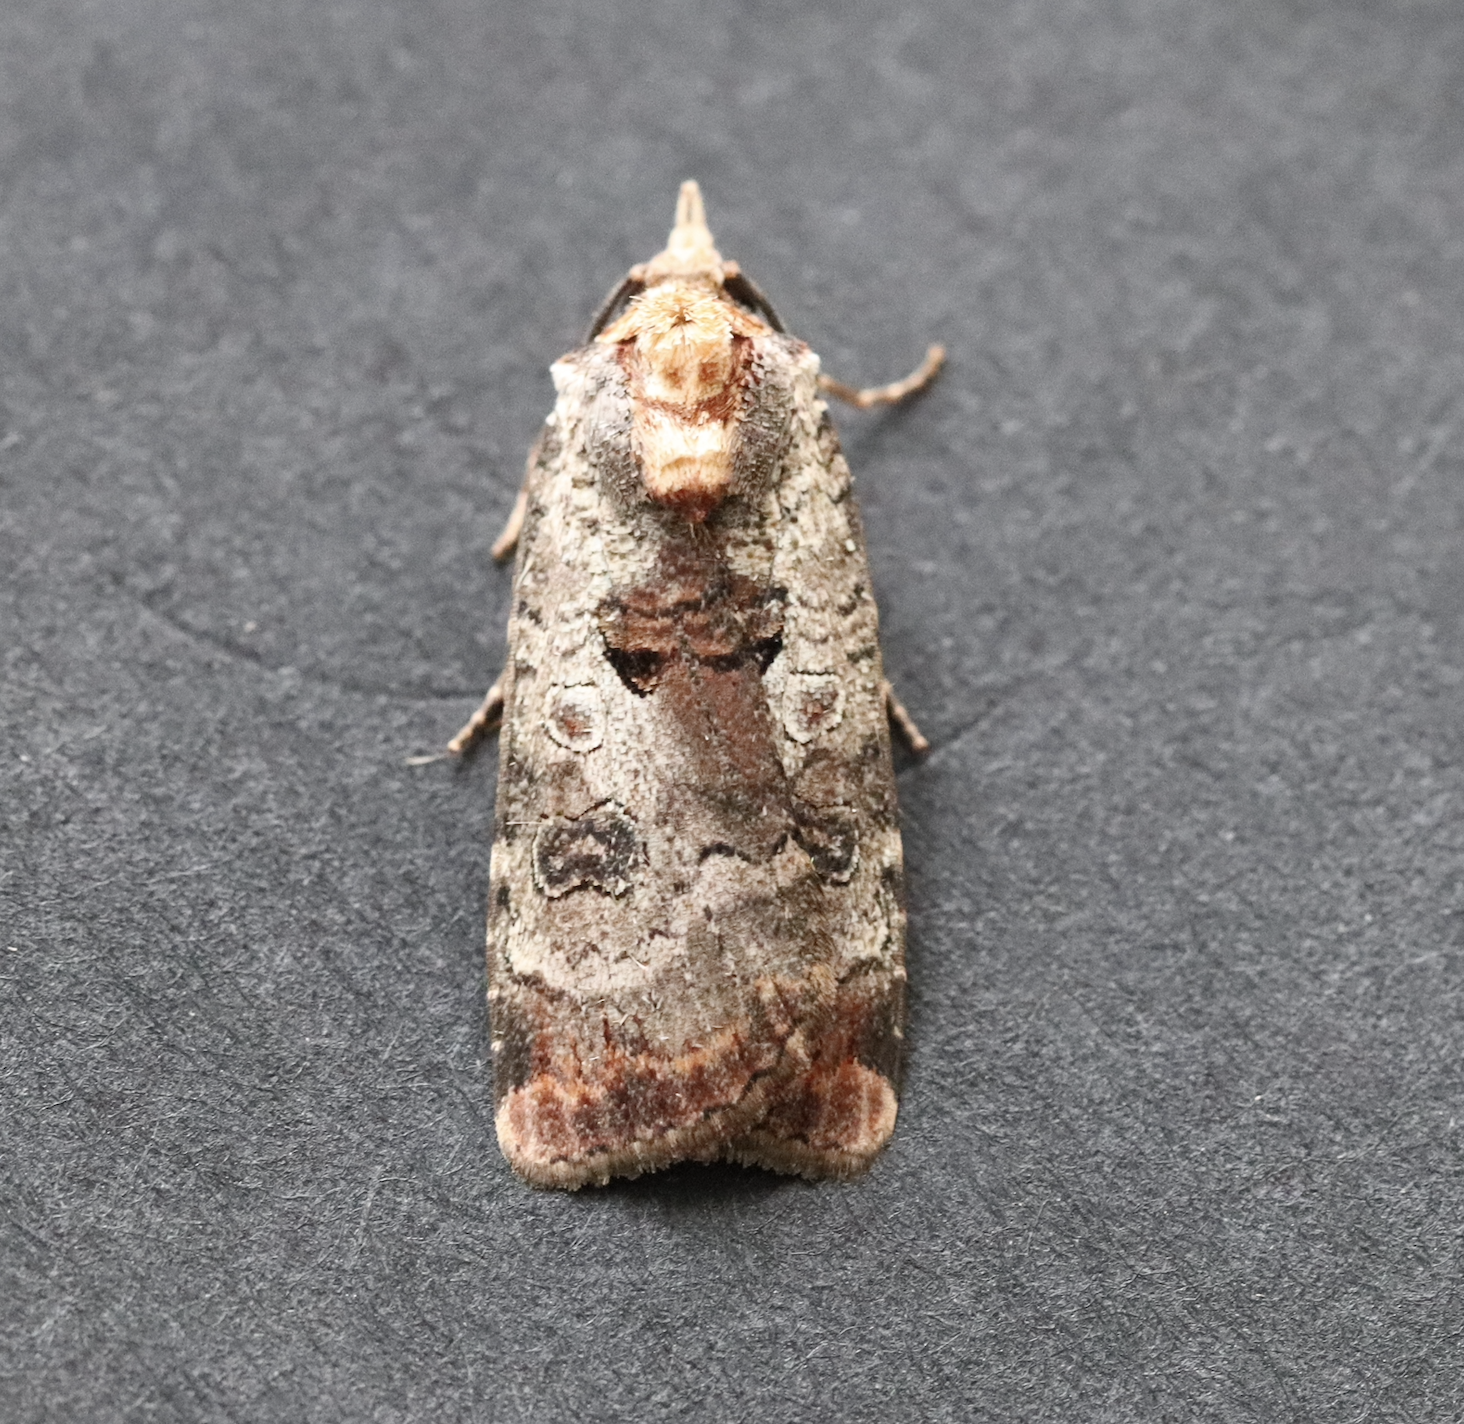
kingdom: Animalia
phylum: Arthropoda
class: Insecta
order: Lepidoptera
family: Noctuidae
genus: Epilecta
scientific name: Epilecta linogrisea
